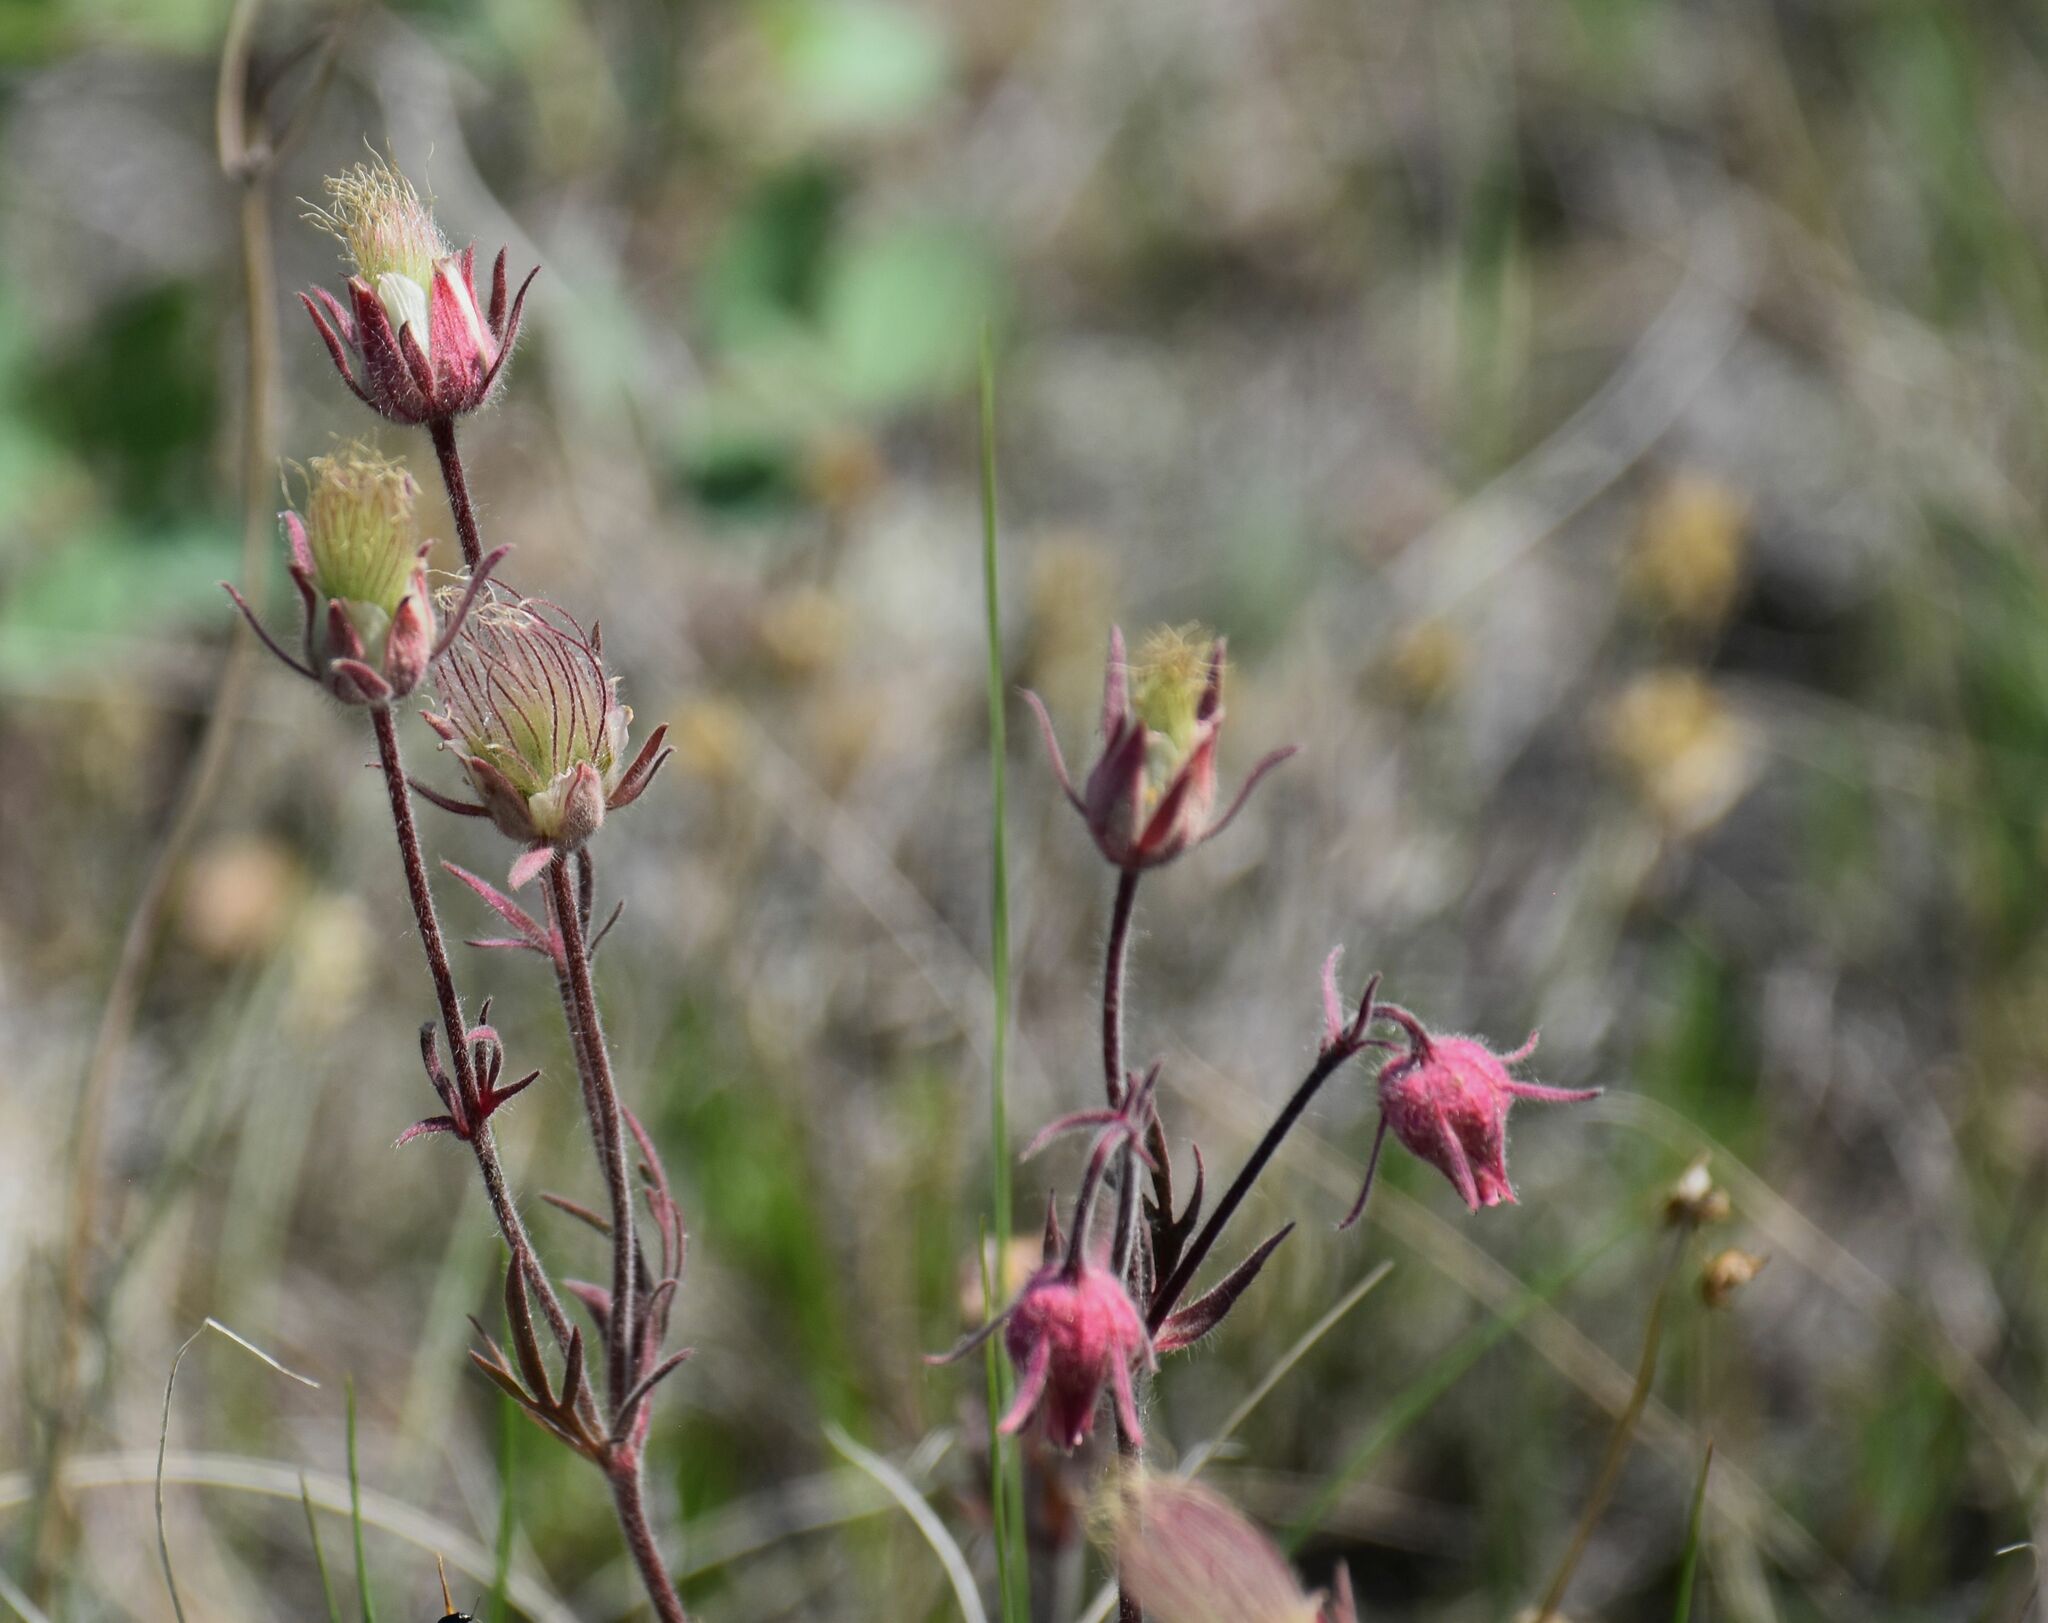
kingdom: Plantae
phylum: Tracheophyta
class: Magnoliopsida
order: Rosales
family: Rosaceae
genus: Geum
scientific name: Geum triflorum
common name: Old man's whiskers
